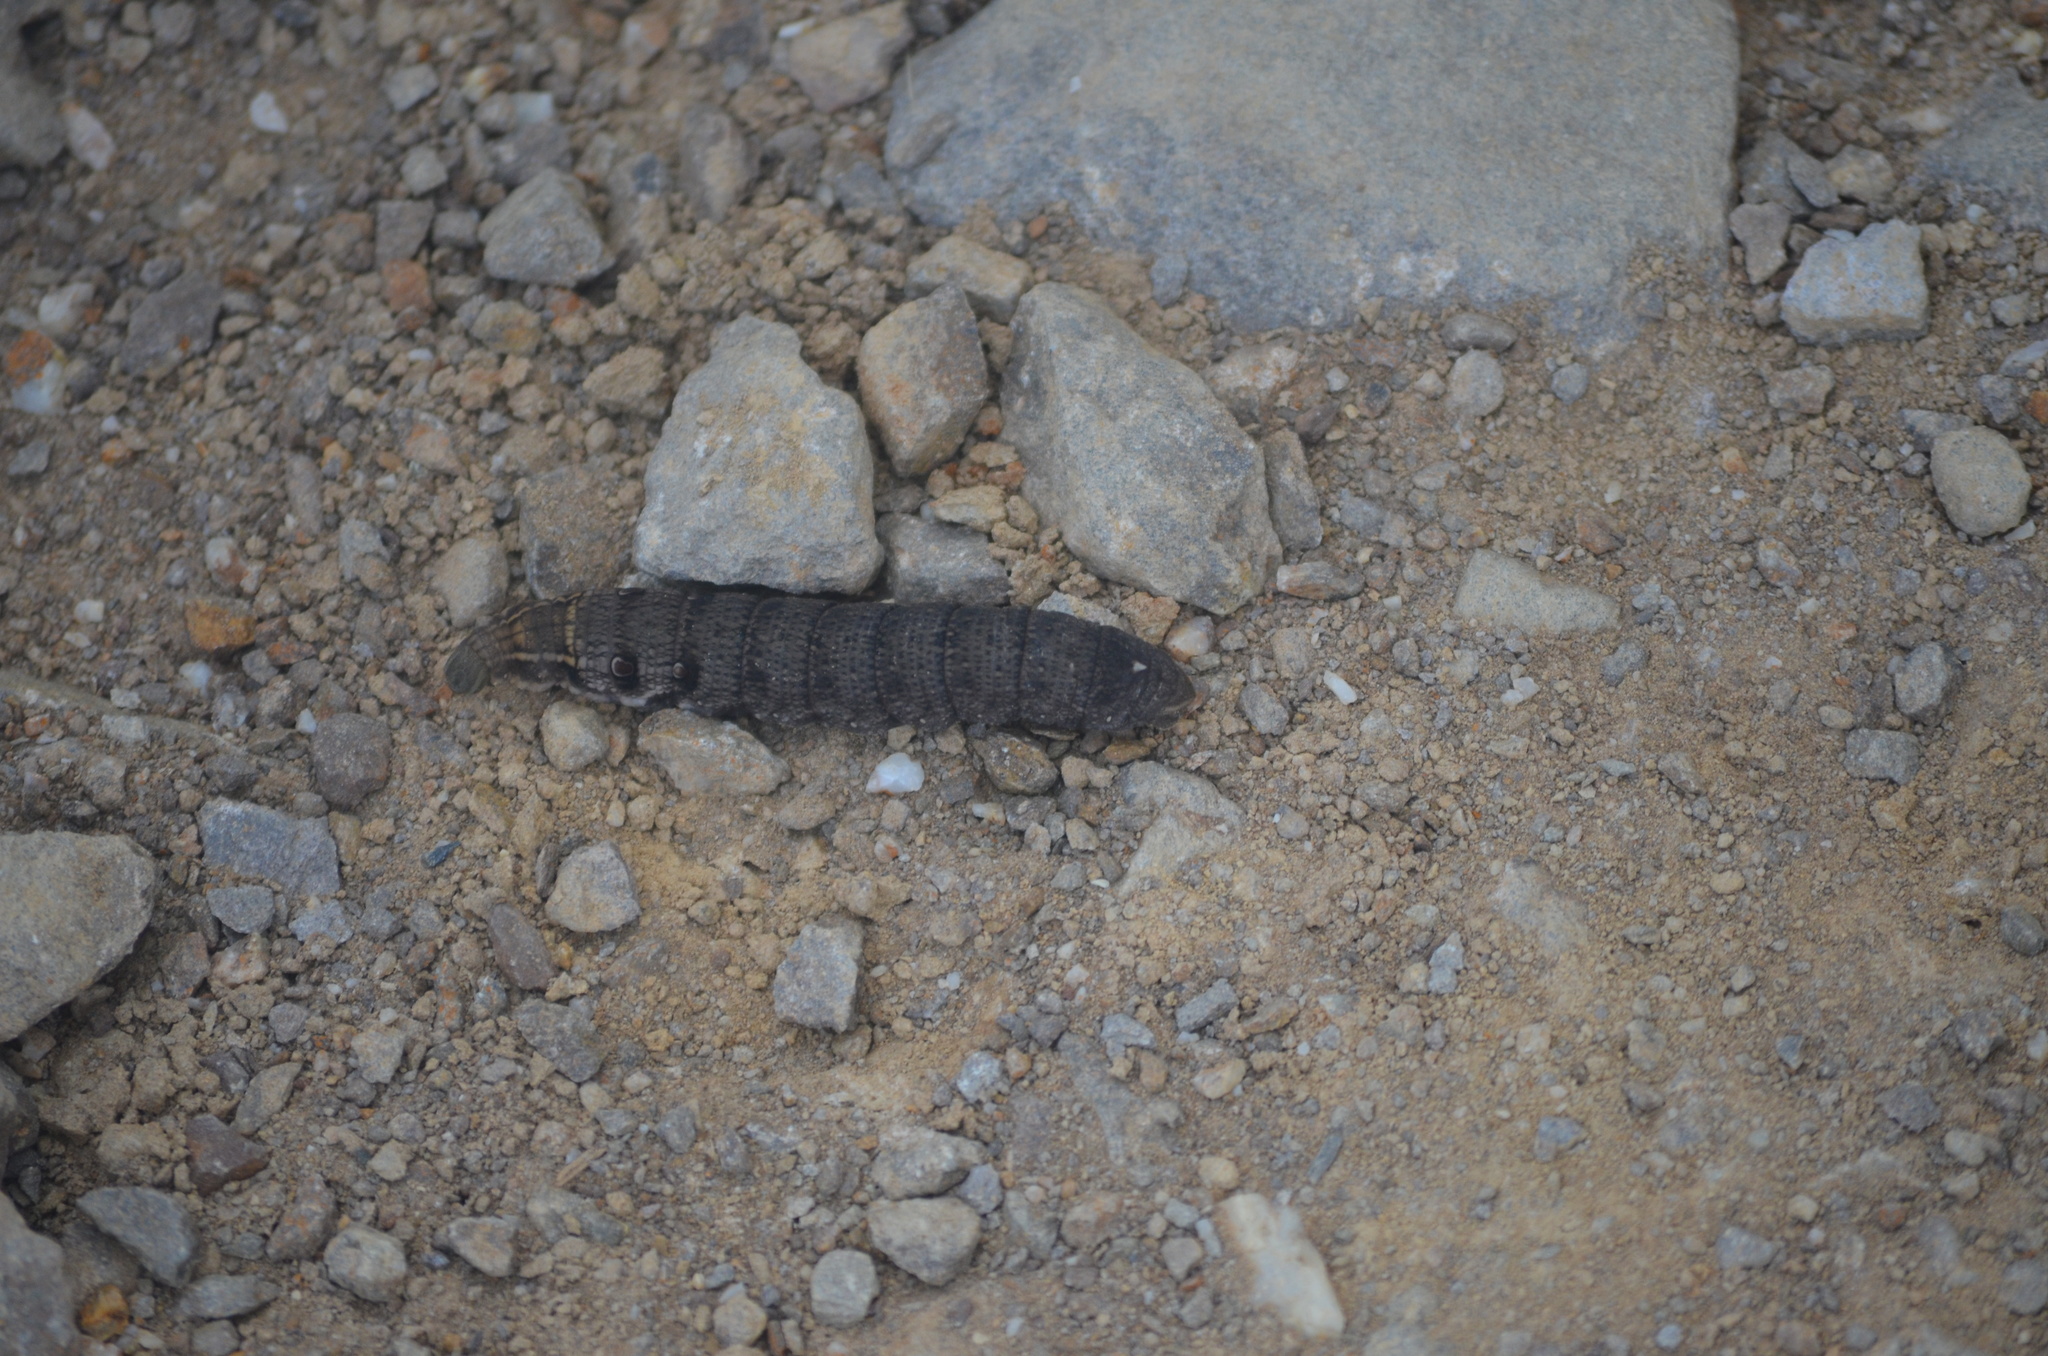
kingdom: Animalia
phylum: Arthropoda
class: Insecta
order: Lepidoptera
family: Sphingidae
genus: Deilephila
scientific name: Deilephila porcellus
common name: Small elephant hawk-moth
